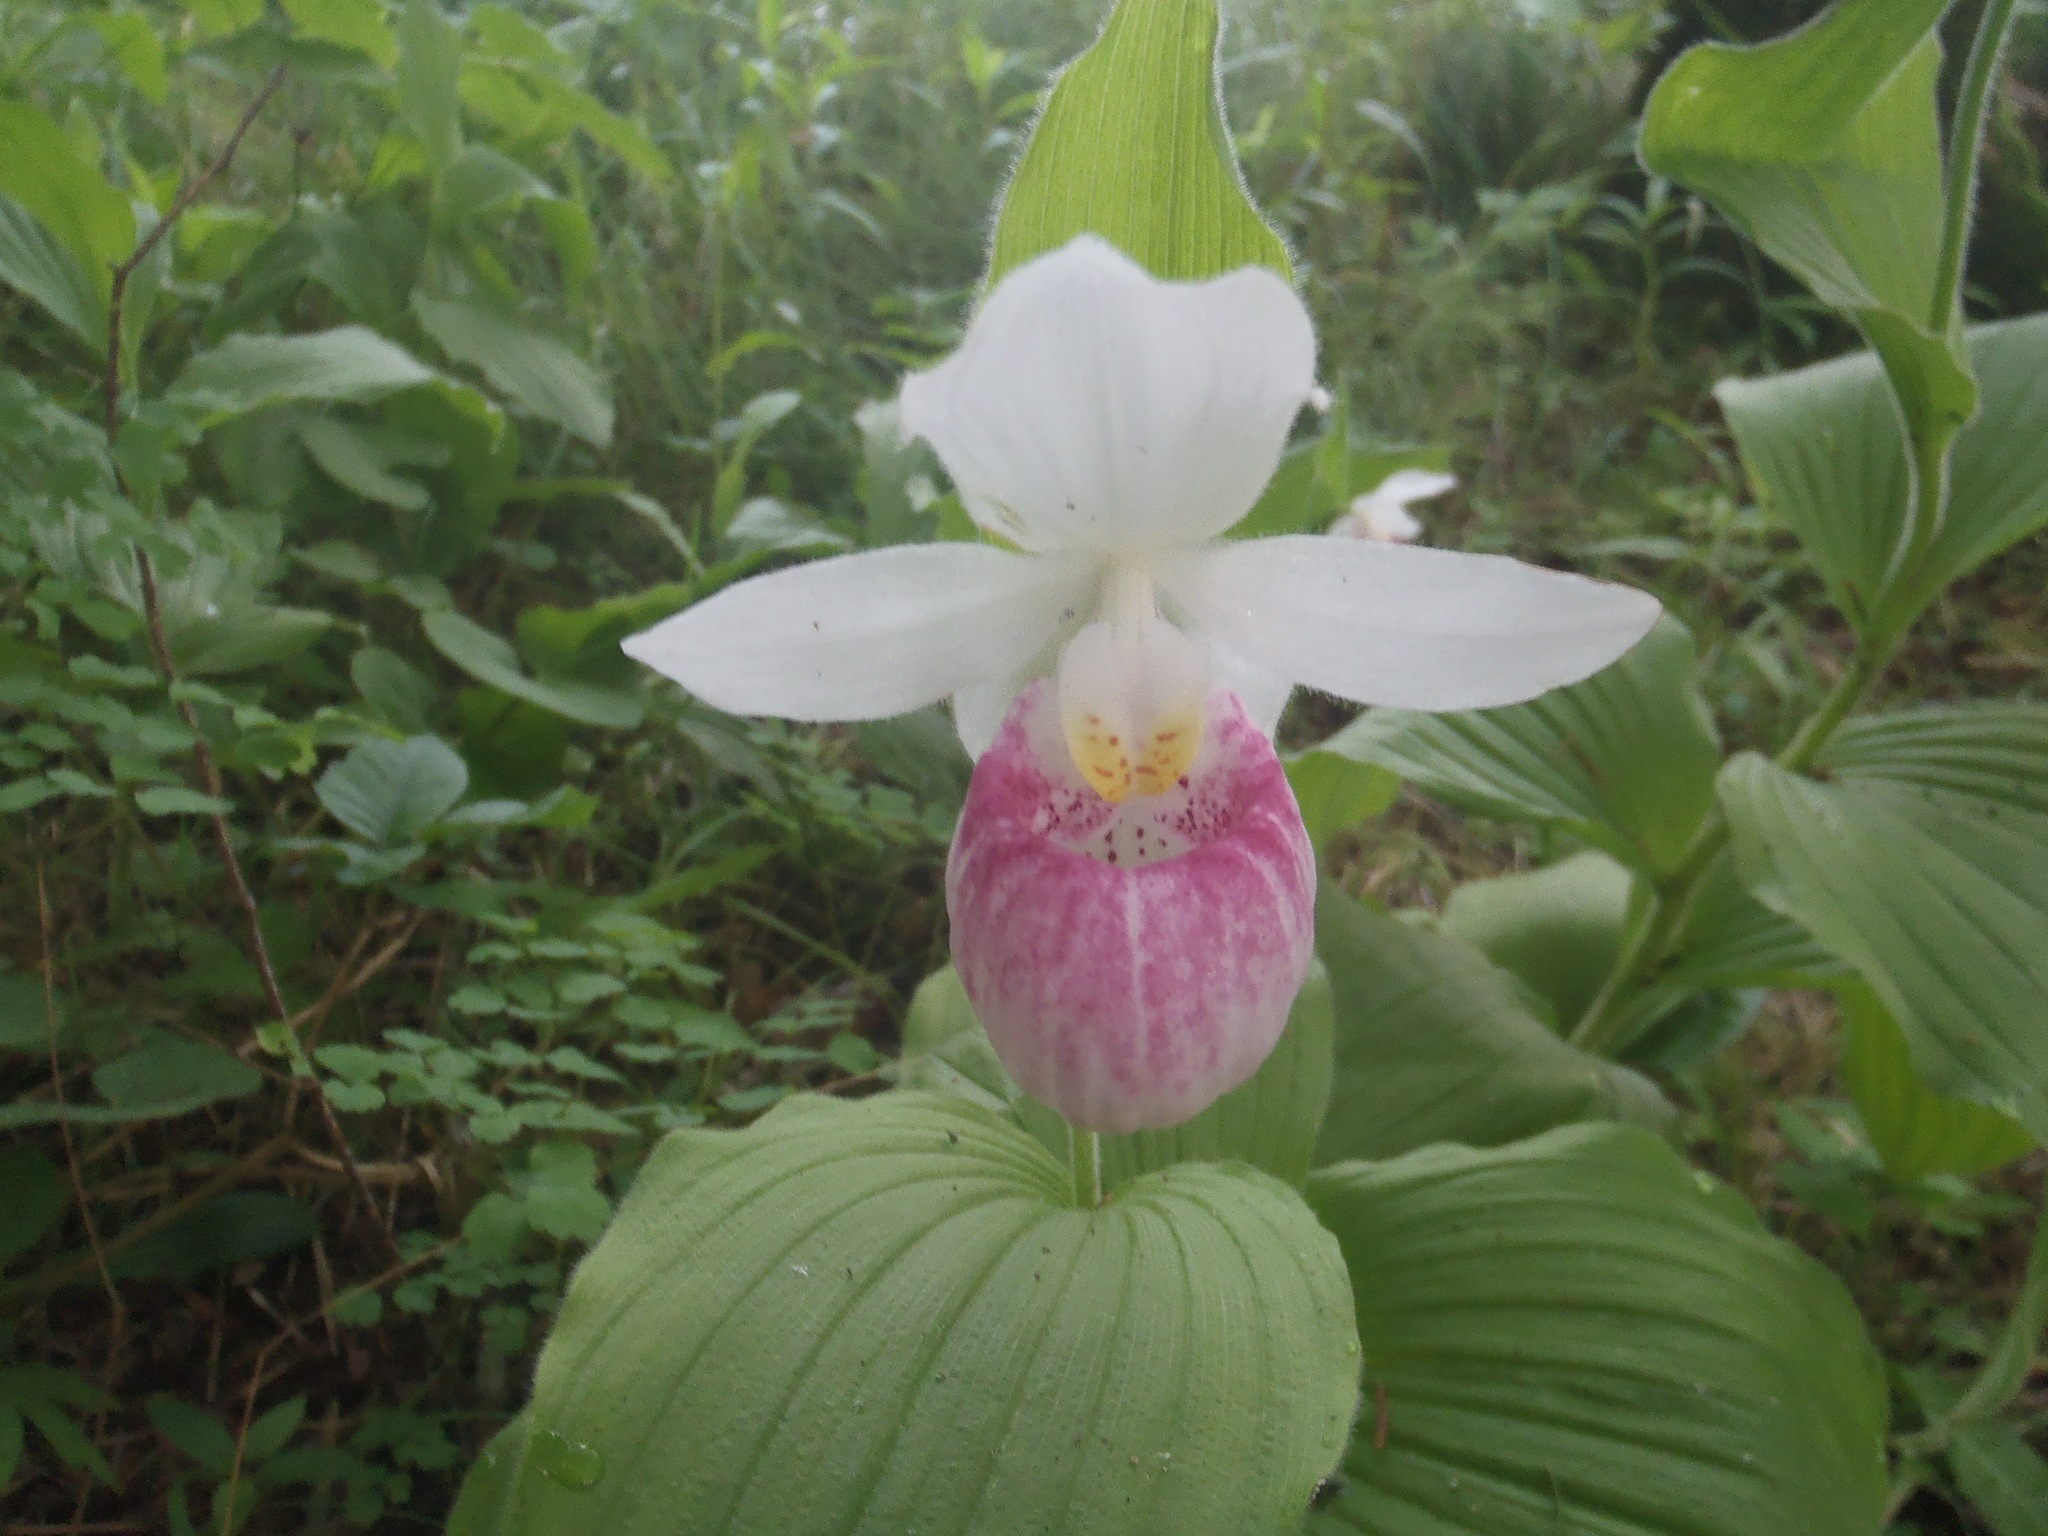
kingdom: Plantae
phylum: Tracheophyta
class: Liliopsida
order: Asparagales
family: Orchidaceae
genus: Cypripedium
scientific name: Cypripedium reginae
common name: Queen lady's-slipper
